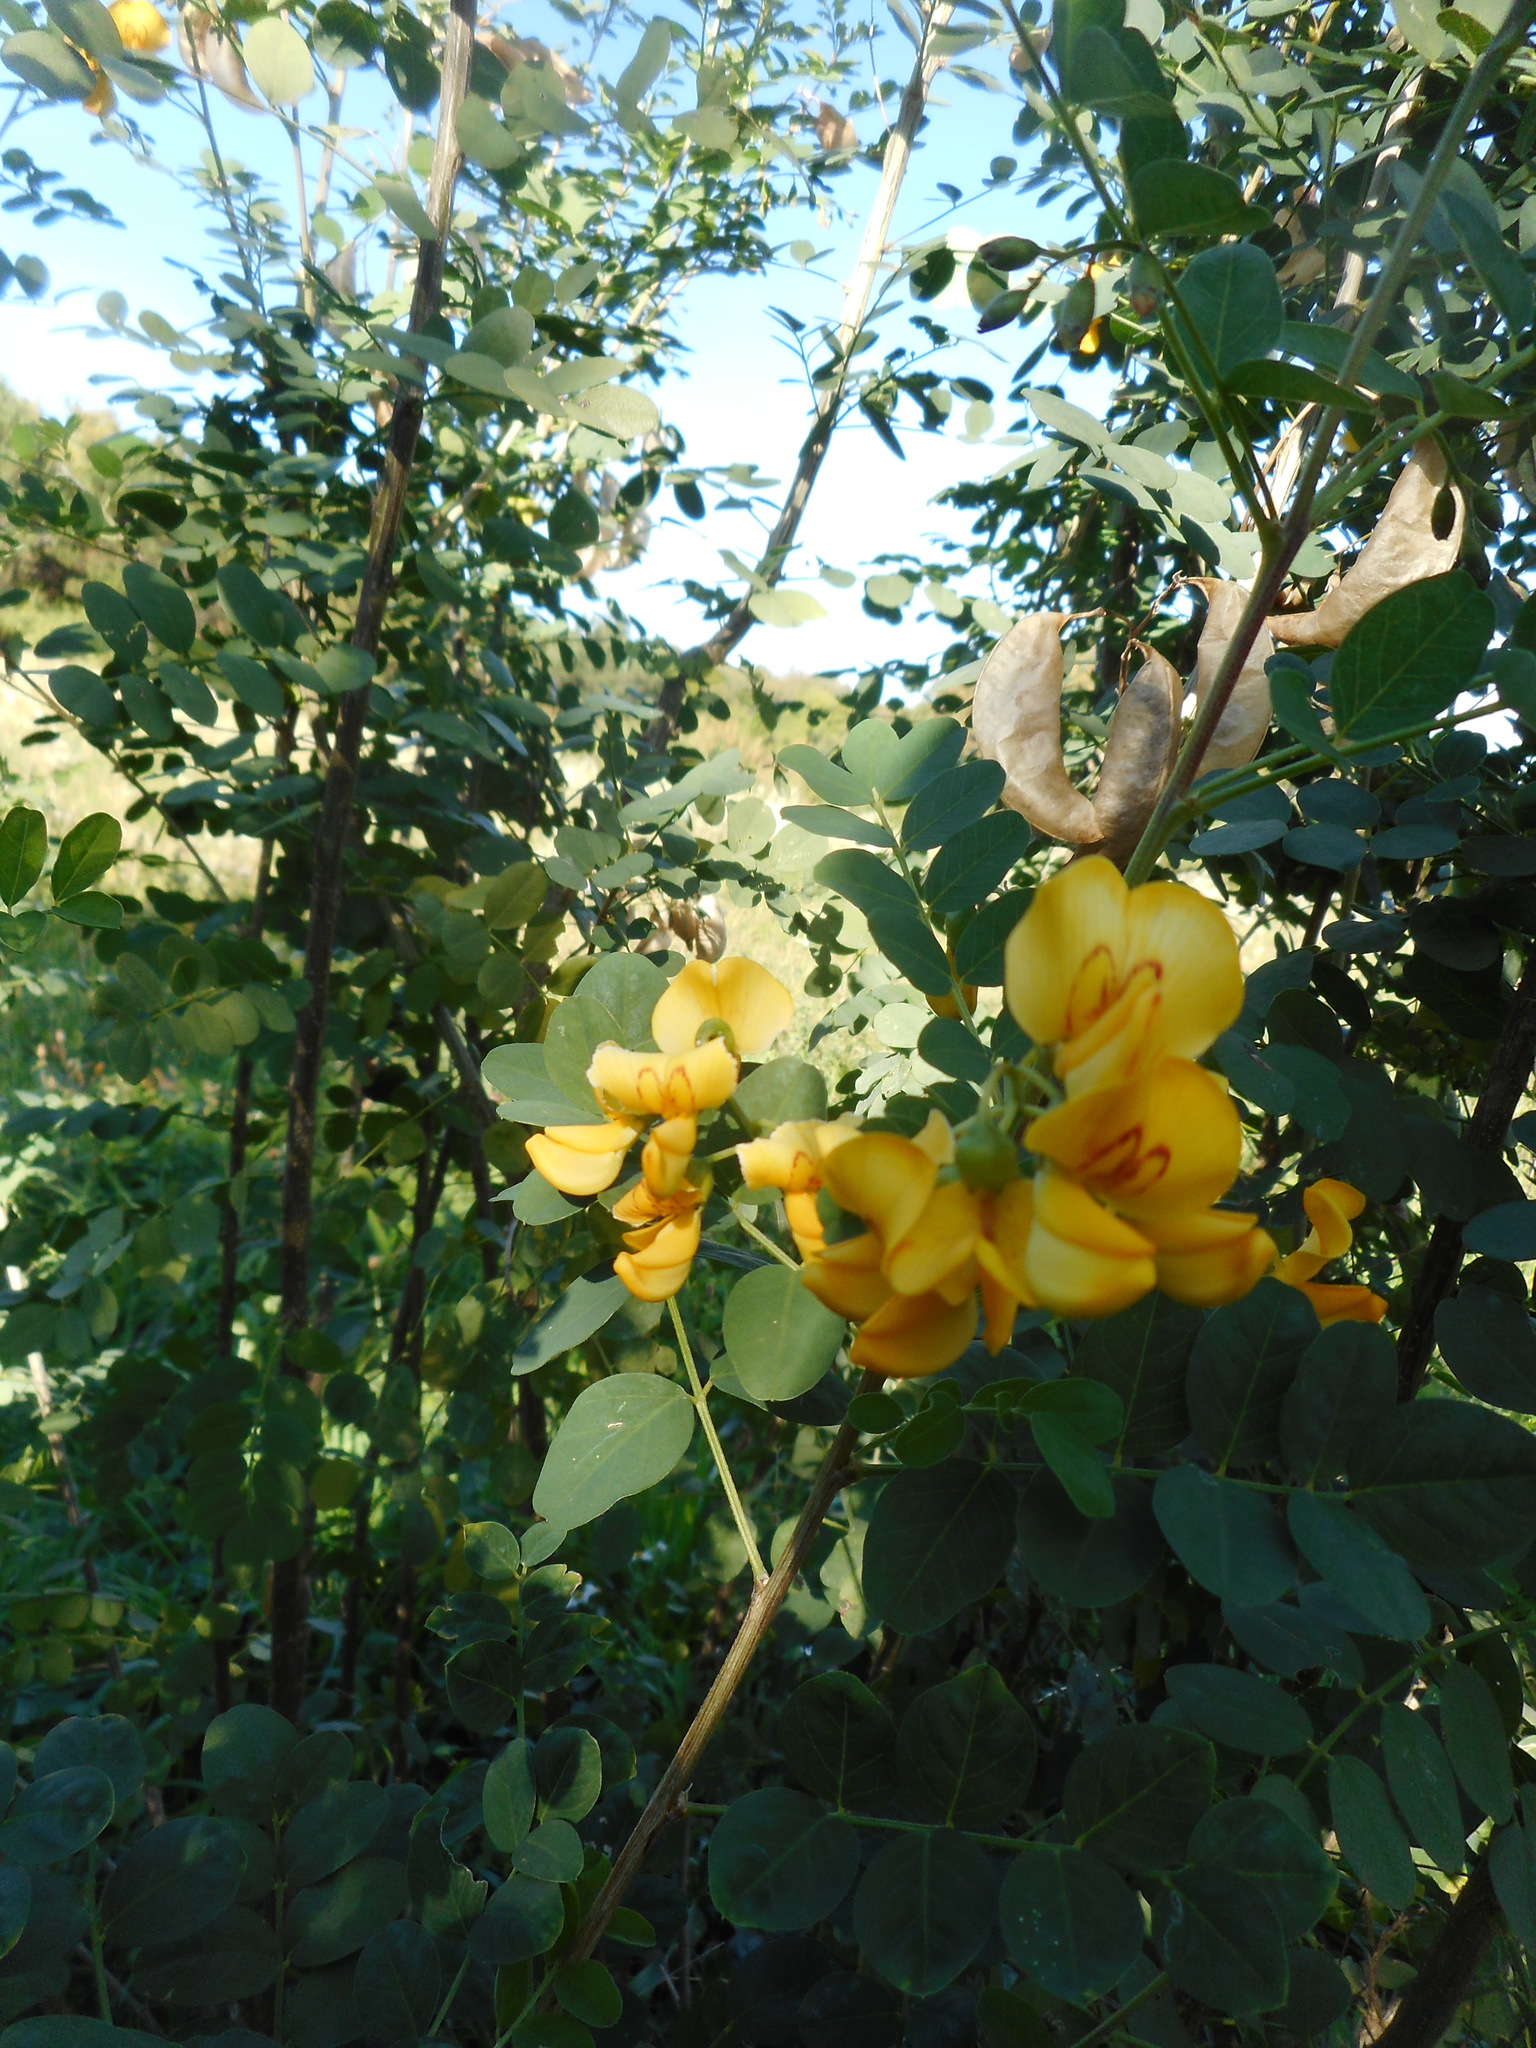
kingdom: Plantae
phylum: Tracheophyta
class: Magnoliopsida
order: Fabales
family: Fabaceae
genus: Colutea
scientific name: Colutea arborescens
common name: Bladder-senna
